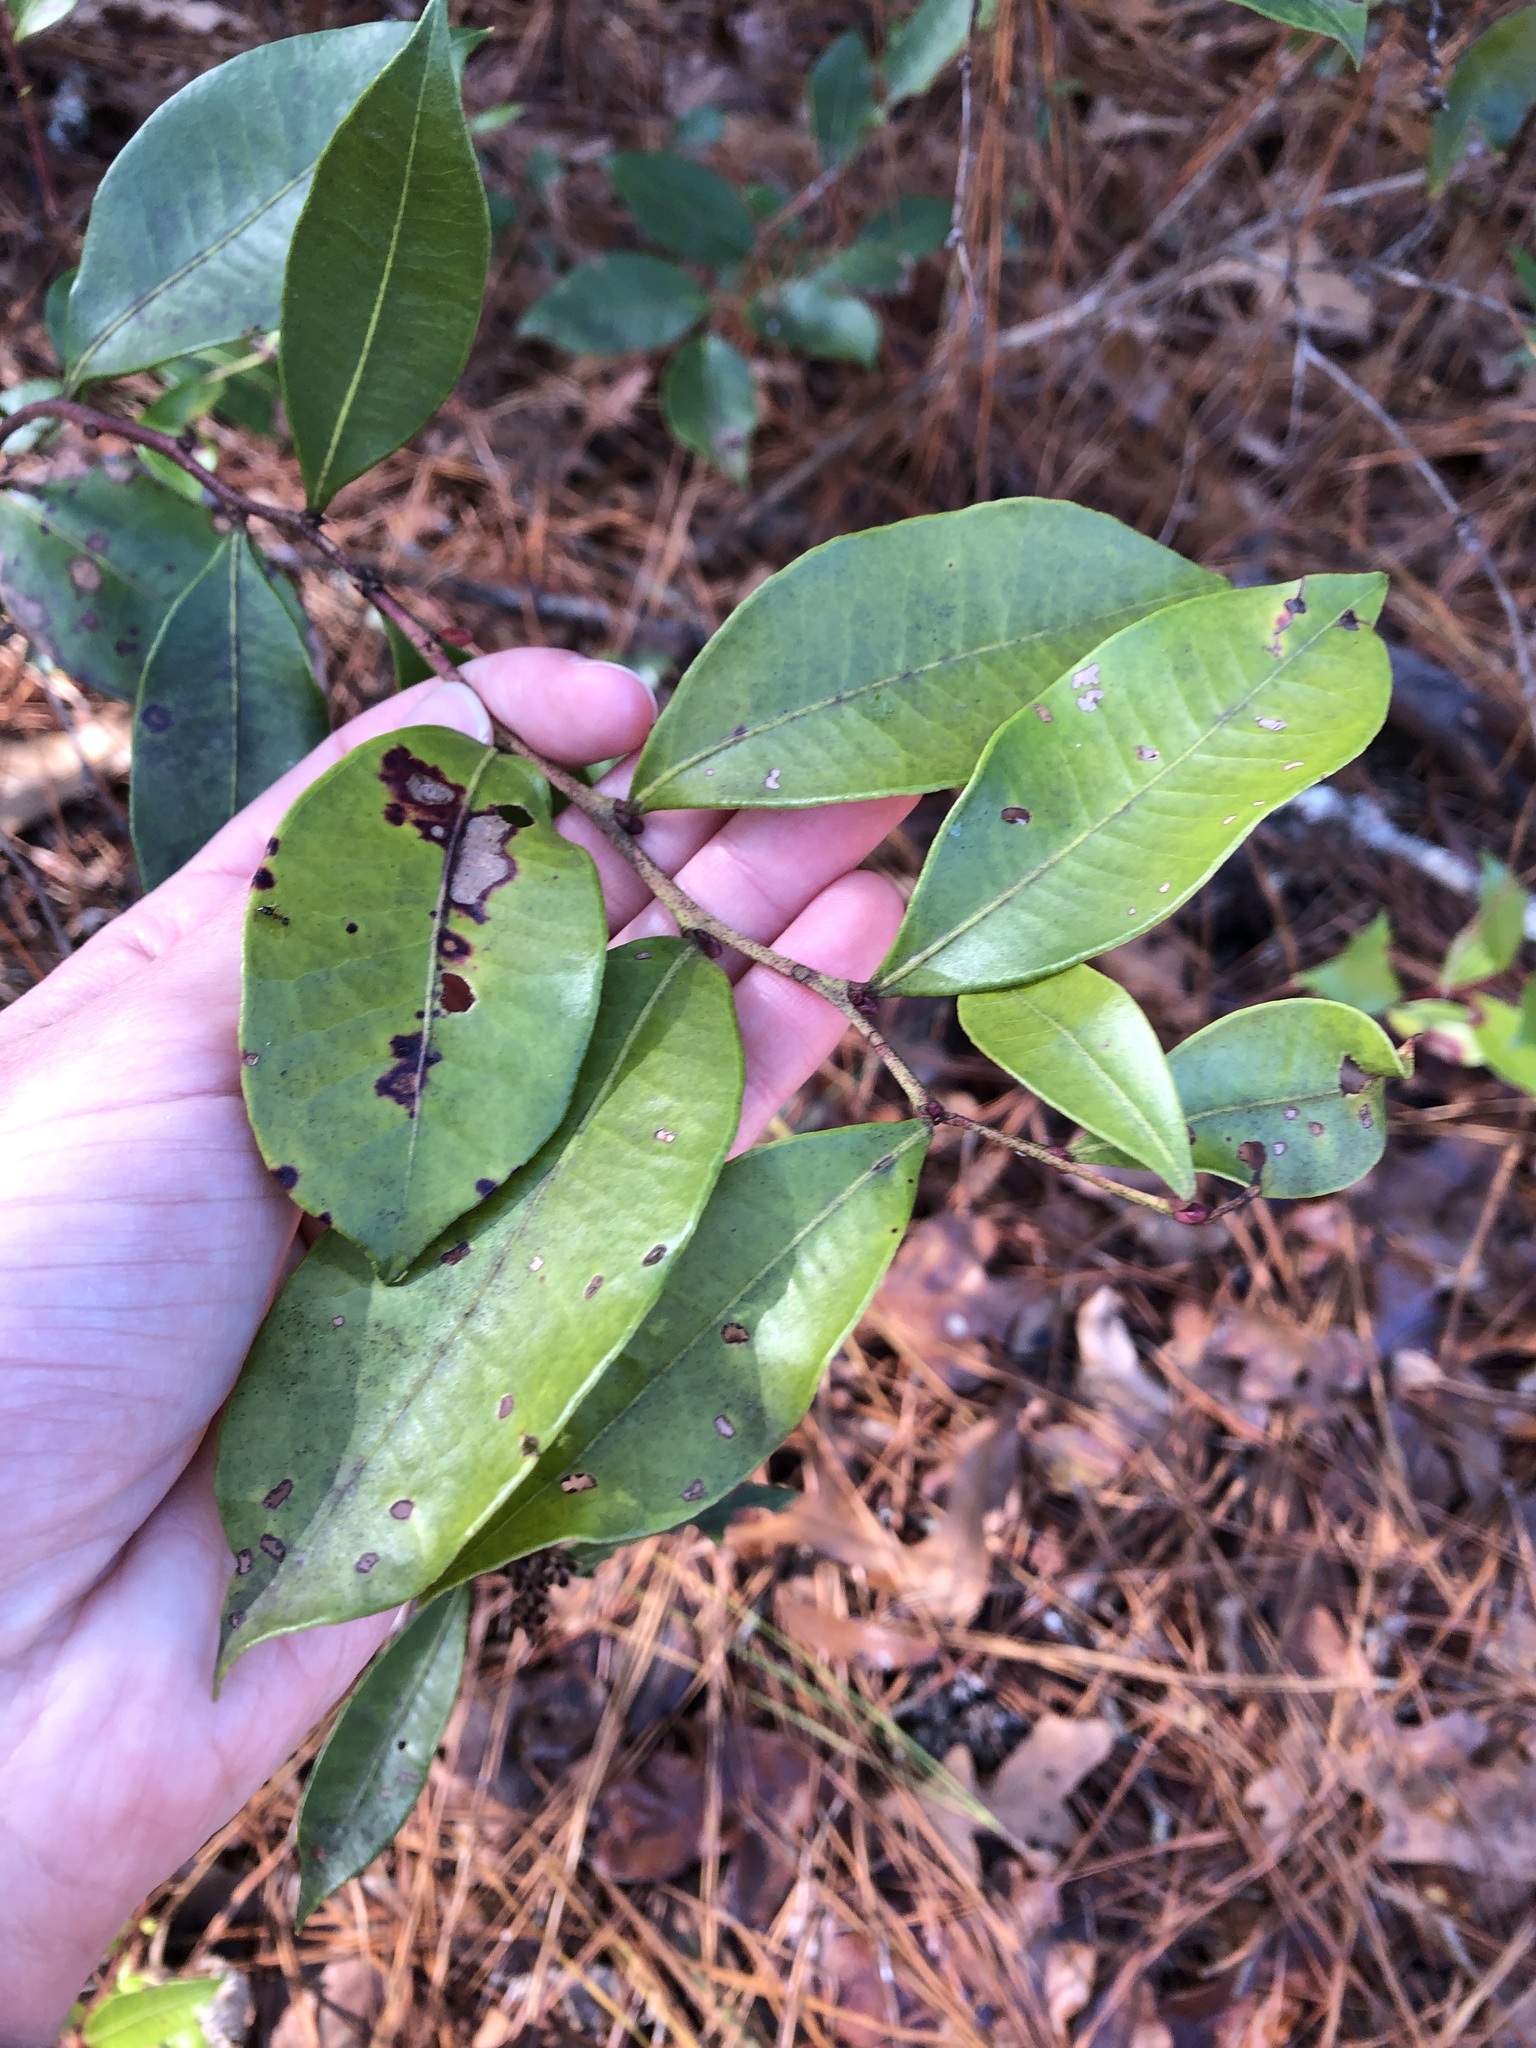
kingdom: Plantae
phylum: Tracheophyta
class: Magnoliopsida
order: Ericales
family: Ericaceae
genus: Lyonia
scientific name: Lyonia lucida
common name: Fetterbush
